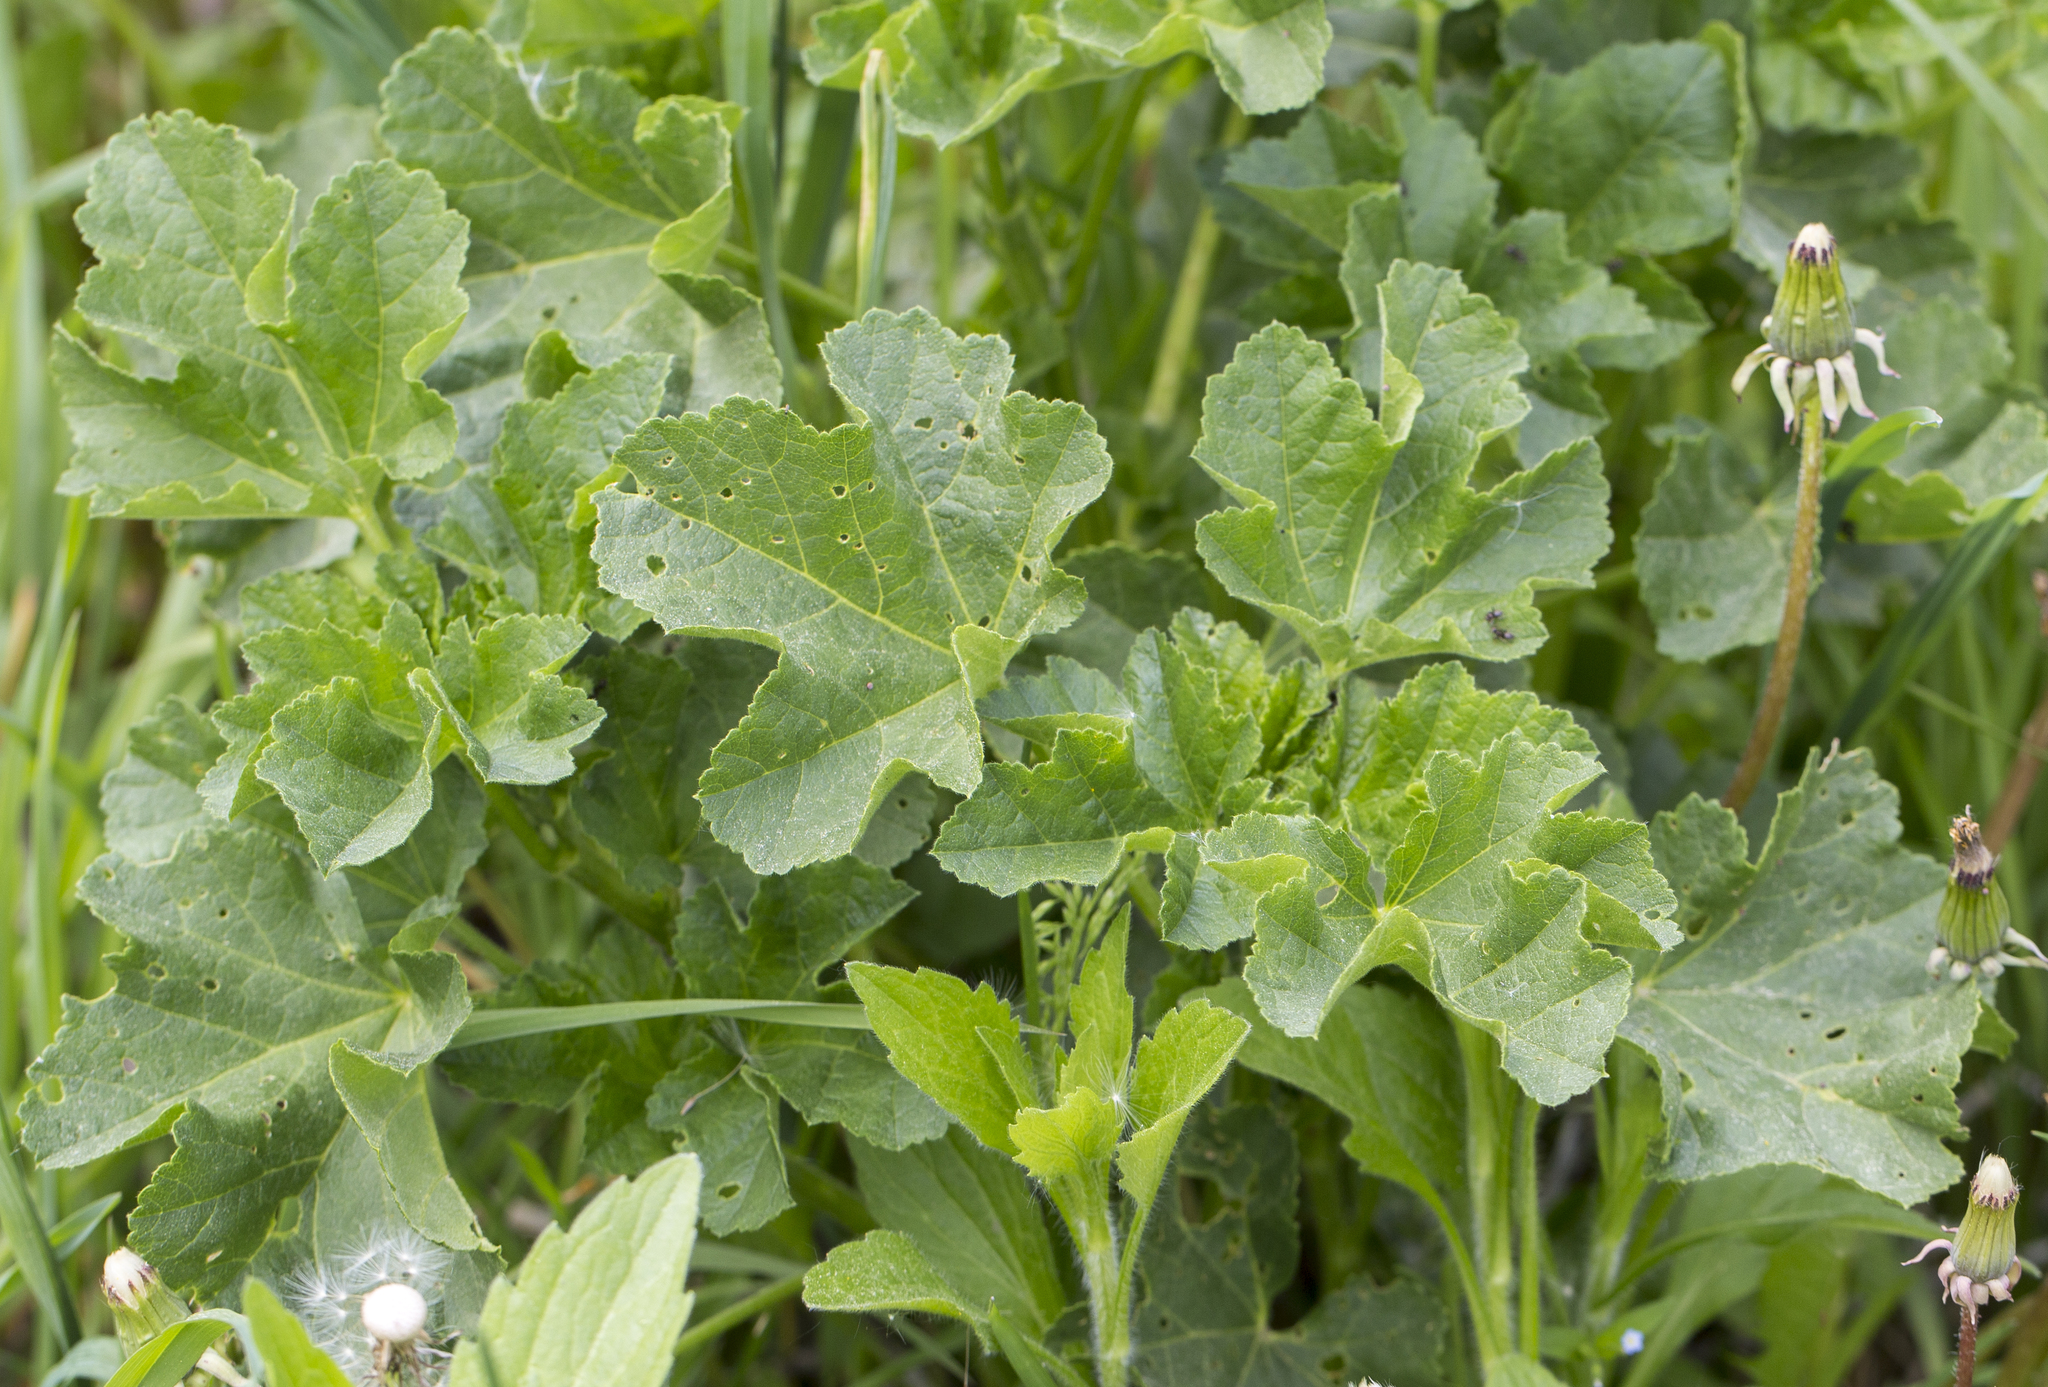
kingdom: Plantae
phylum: Tracheophyta
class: Magnoliopsida
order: Malvales
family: Malvaceae
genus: Malva
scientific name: Malva thuringiaca
